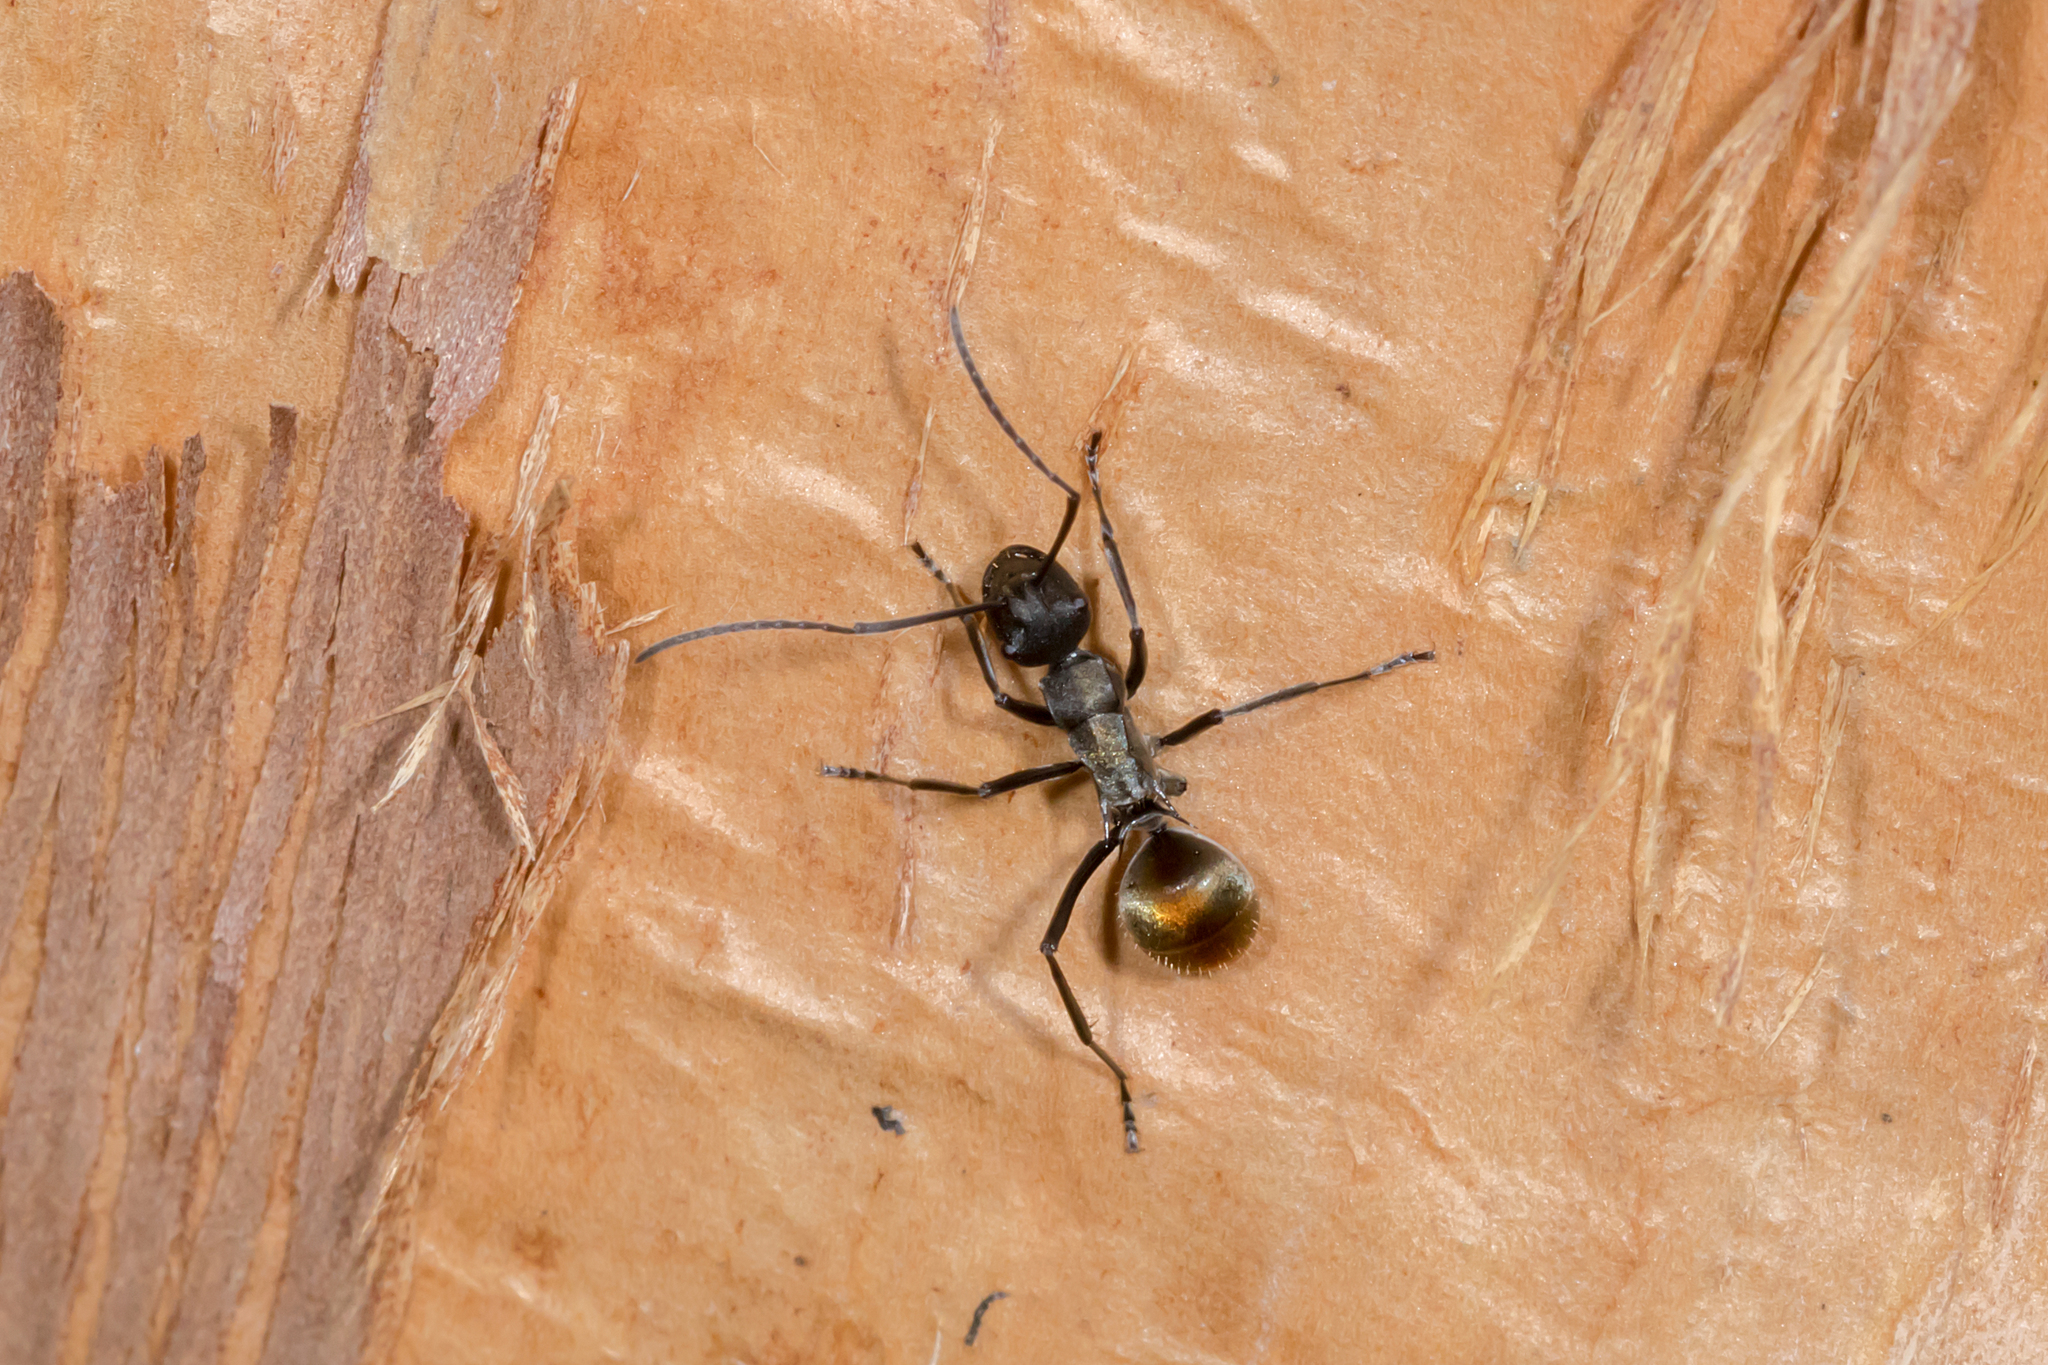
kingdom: Animalia
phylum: Arthropoda
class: Insecta
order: Hymenoptera
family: Formicidae
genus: Polyrhachis
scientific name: Polyrhachis angusta
